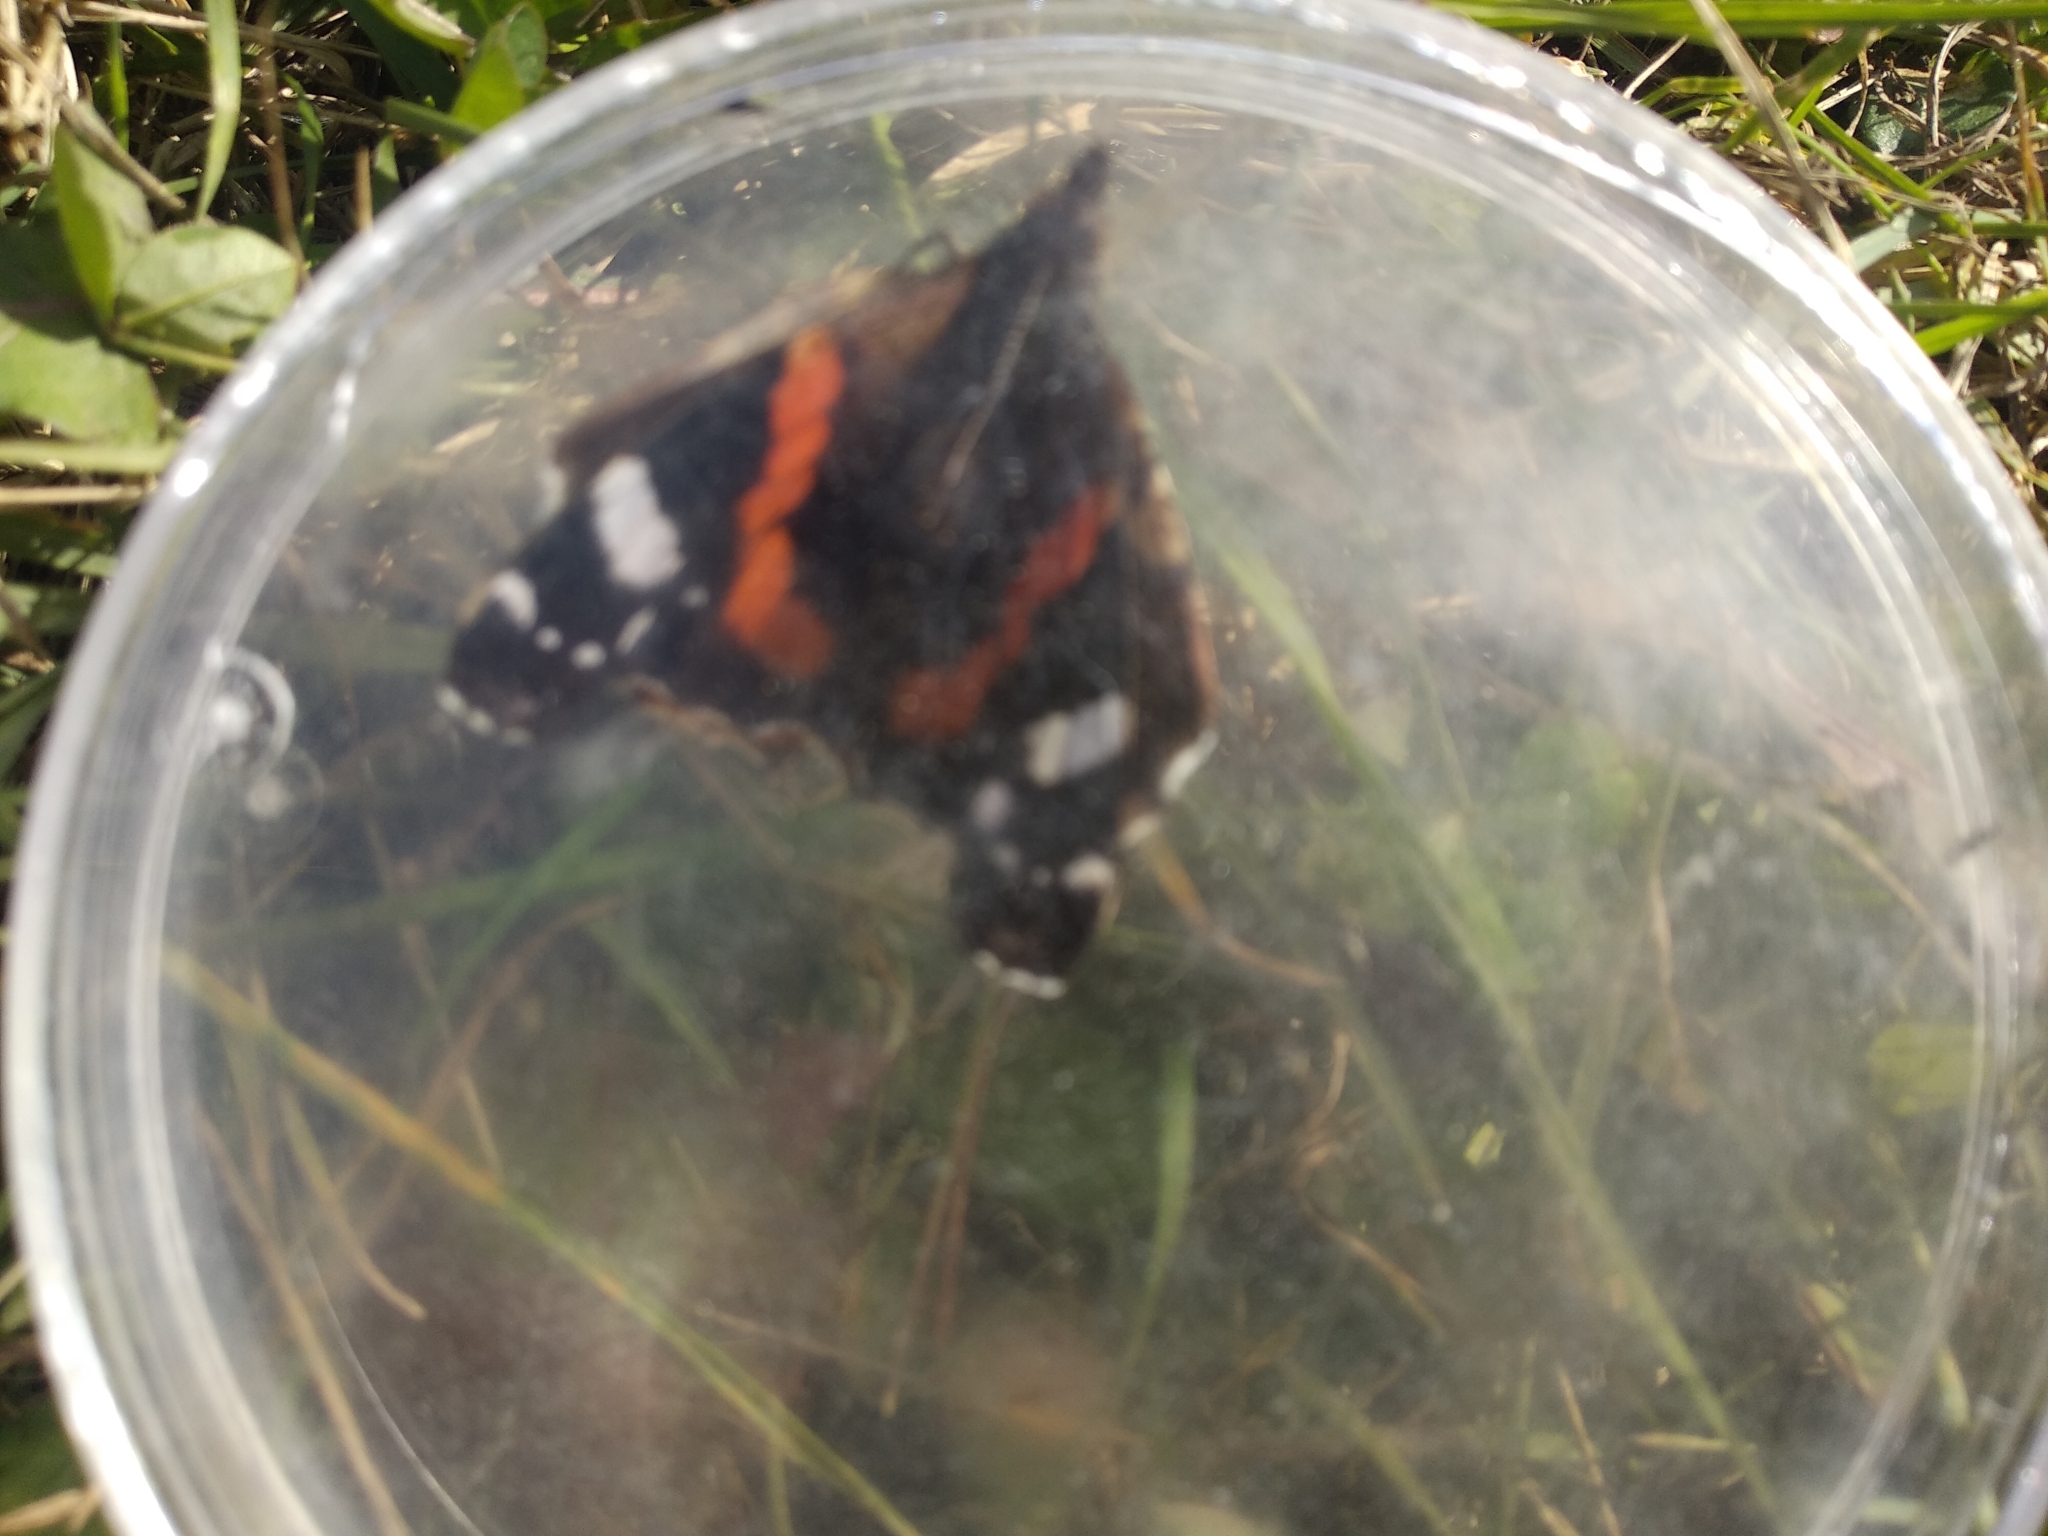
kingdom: Animalia
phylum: Arthropoda
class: Insecta
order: Lepidoptera
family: Nymphalidae
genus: Vanessa
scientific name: Vanessa atalanta
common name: Red admiral
